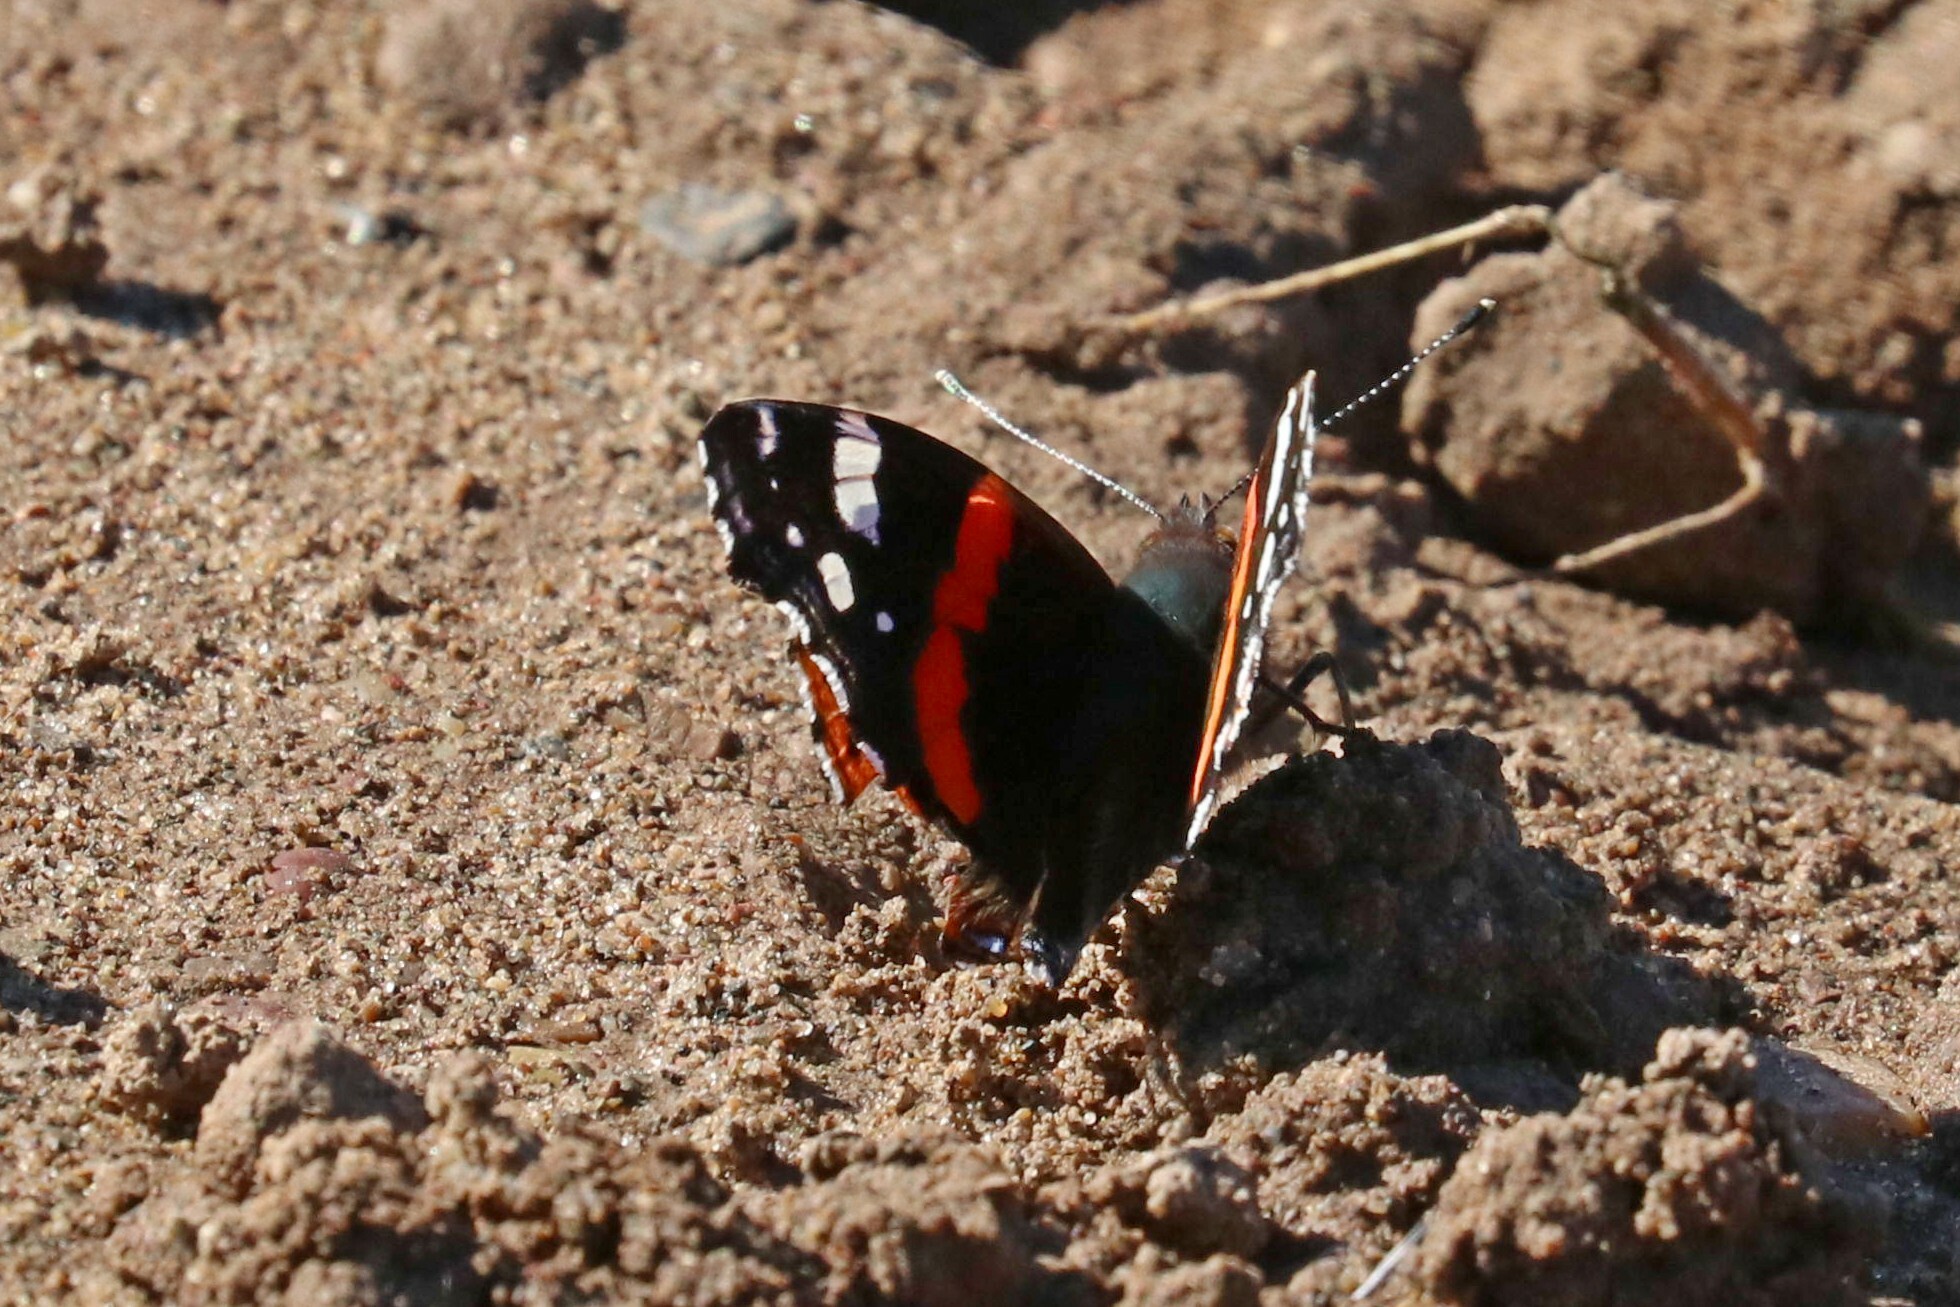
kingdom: Animalia
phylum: Arthropoda
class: Insecta
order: Lepidoptera
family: Nymphalidae
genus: Vanessa
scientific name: Vanessa atalanta
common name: Red admiral
